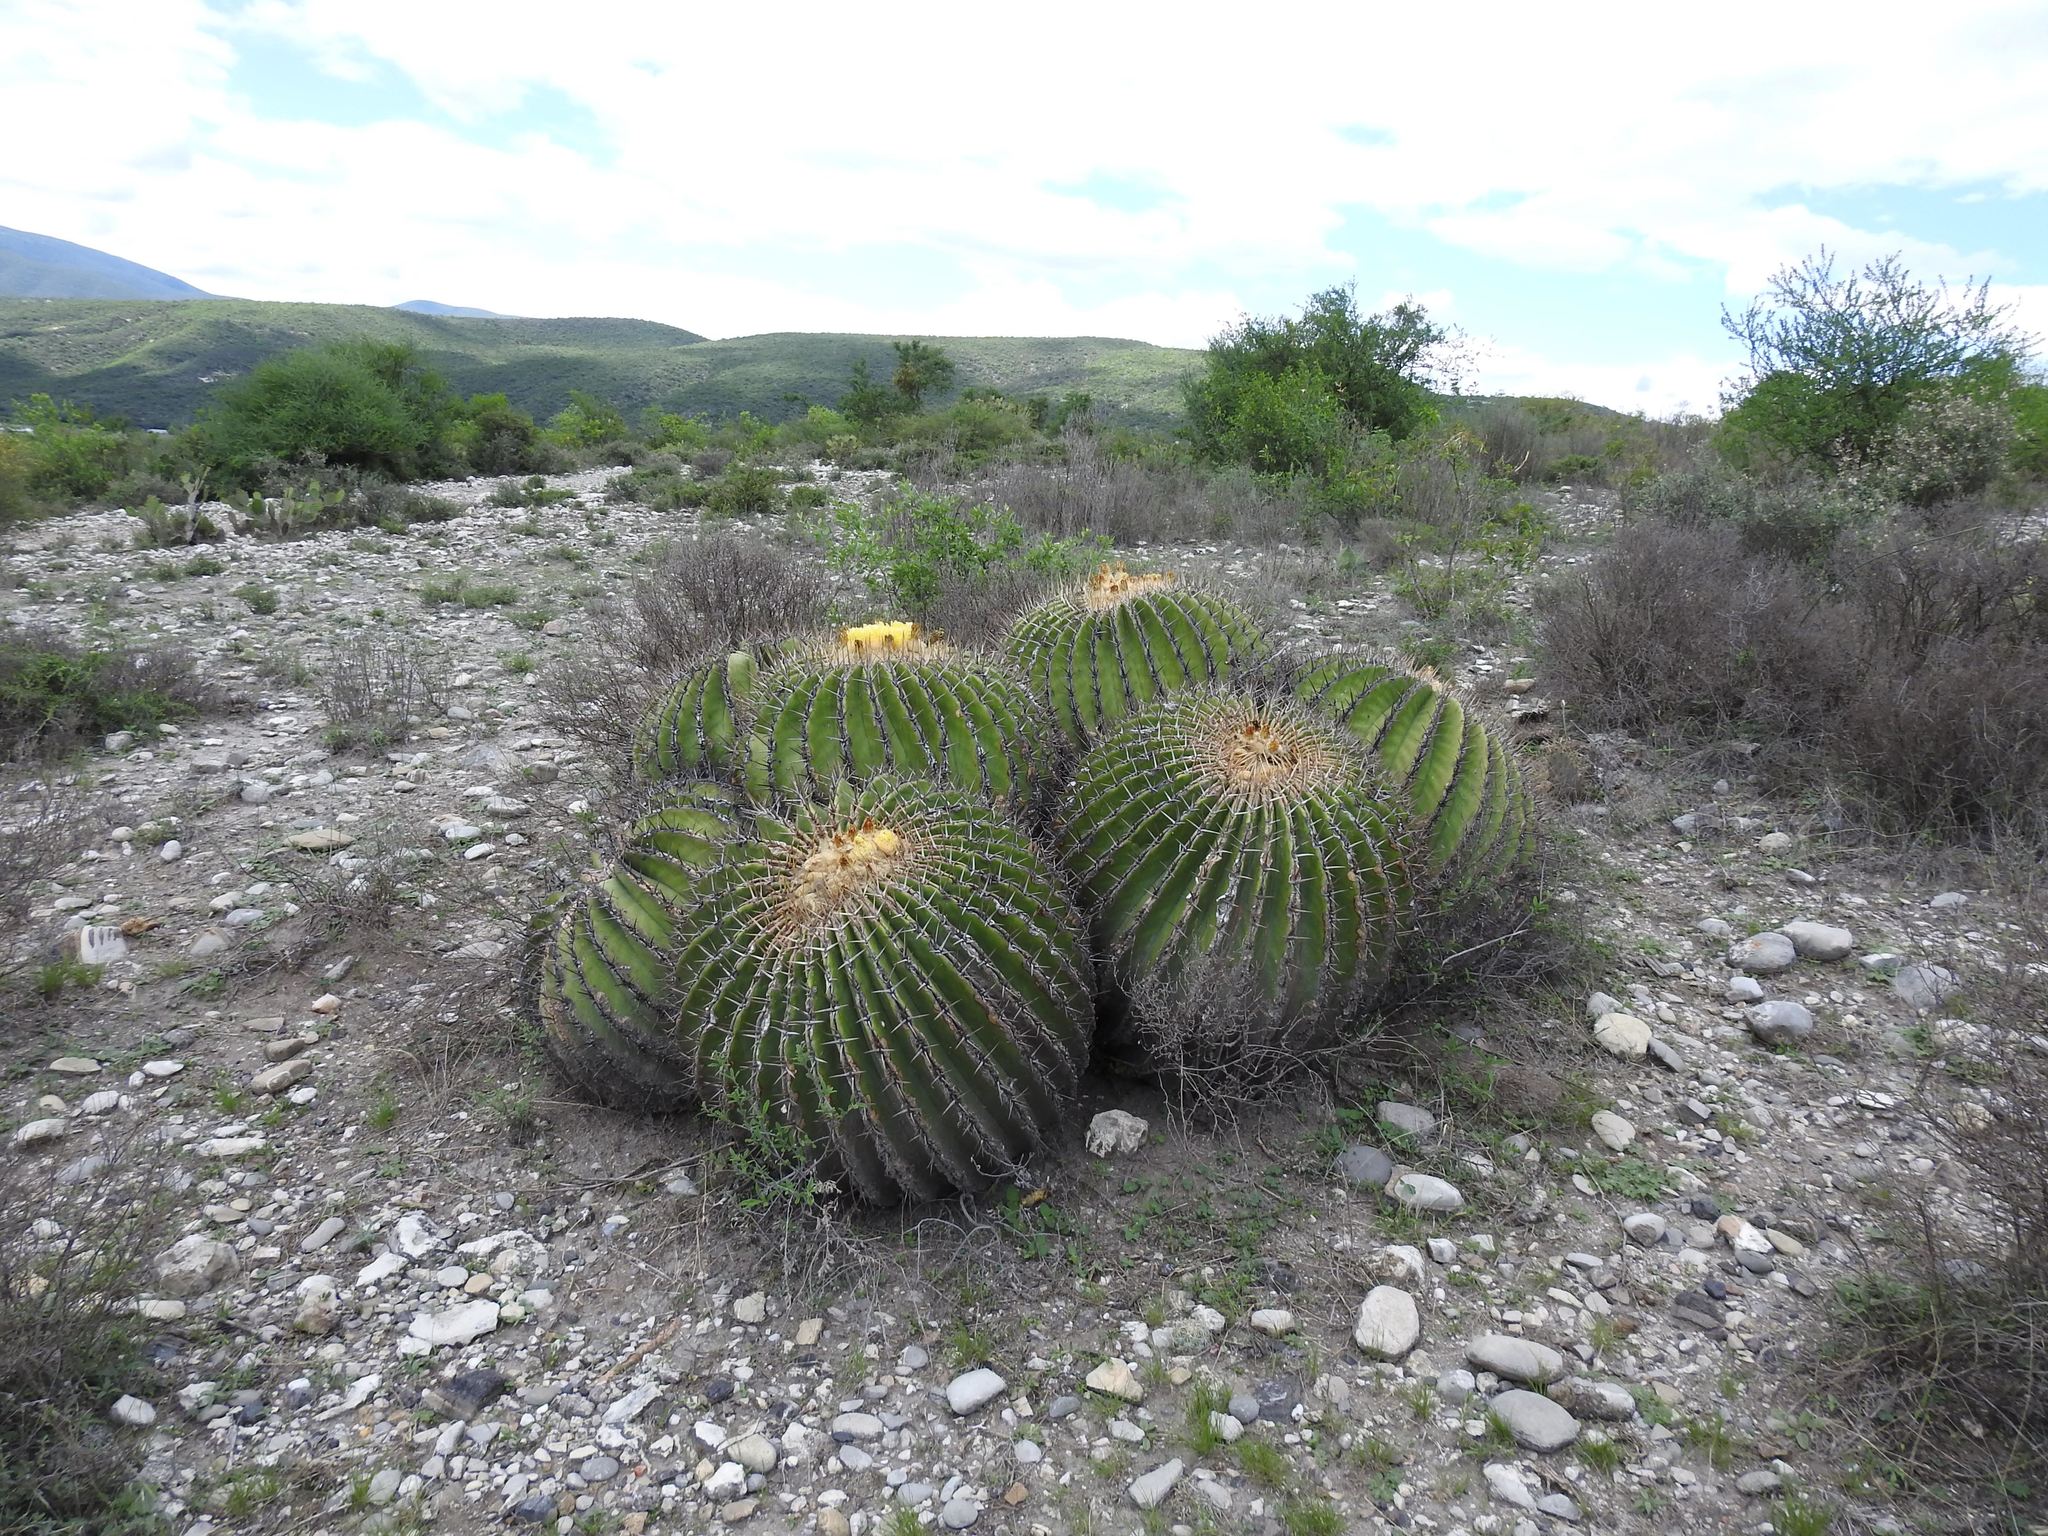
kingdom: Plantae
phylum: Tracheophyta
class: Magnoliopsida
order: Caryophyllales
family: Cactaceae
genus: Echinocactus
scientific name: Echinocactus platyacanthus
